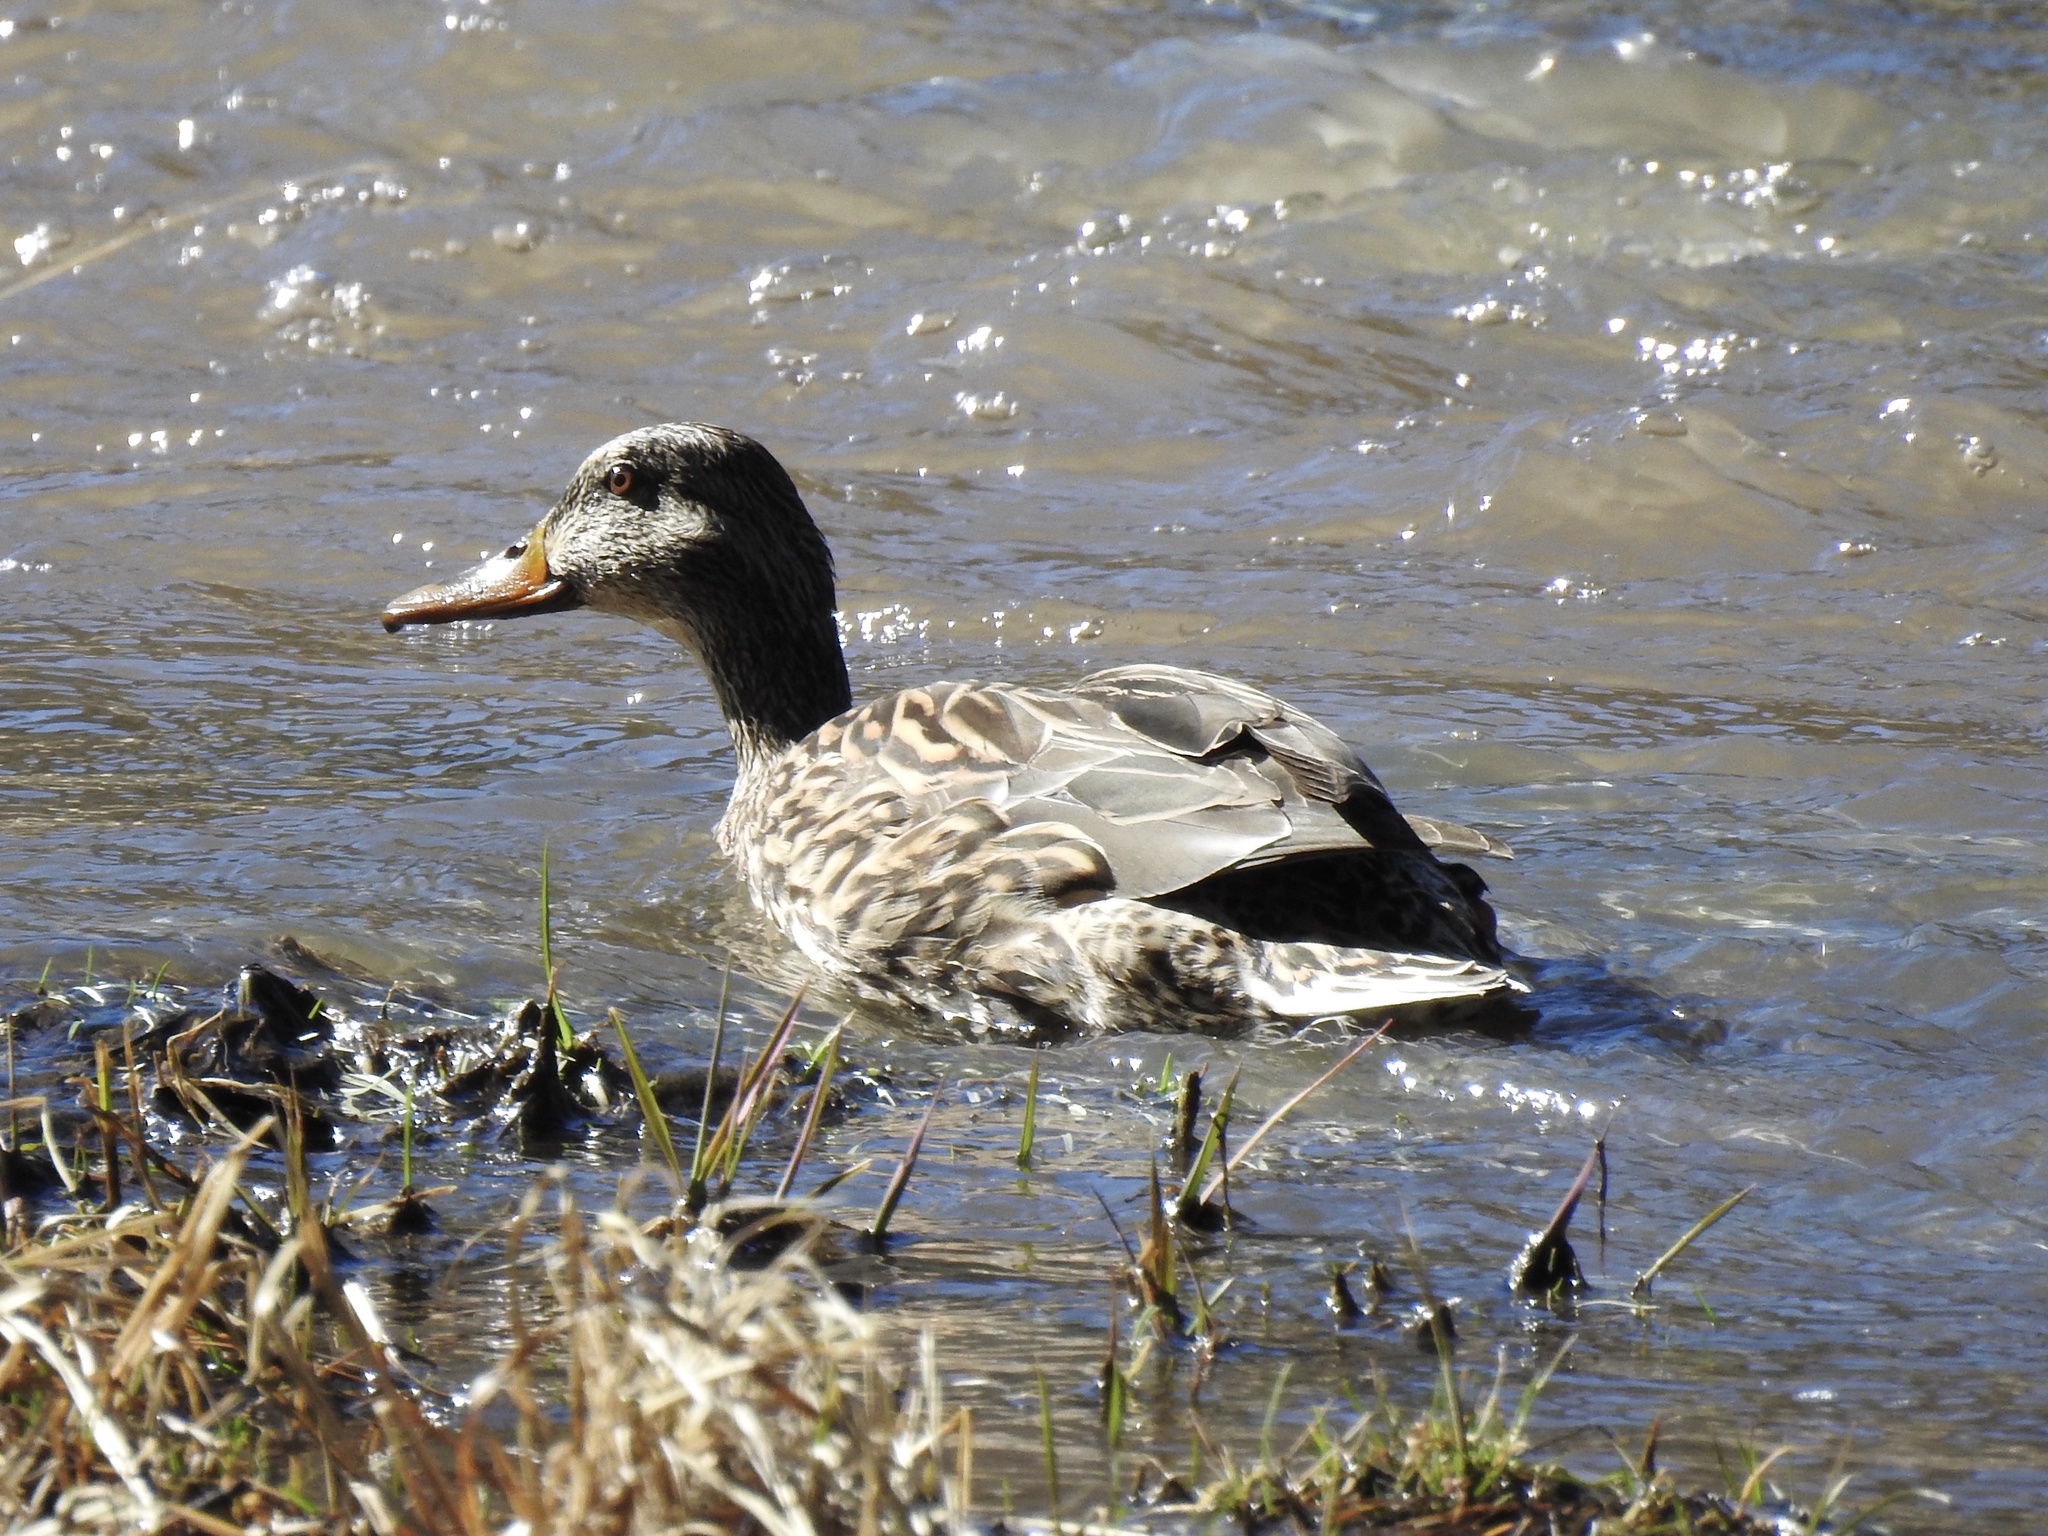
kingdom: Animalia
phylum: Chordata
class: Aves
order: Anseriformes
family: Anatidae
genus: Anas
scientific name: Anas platyrhynchos
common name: Mallard
